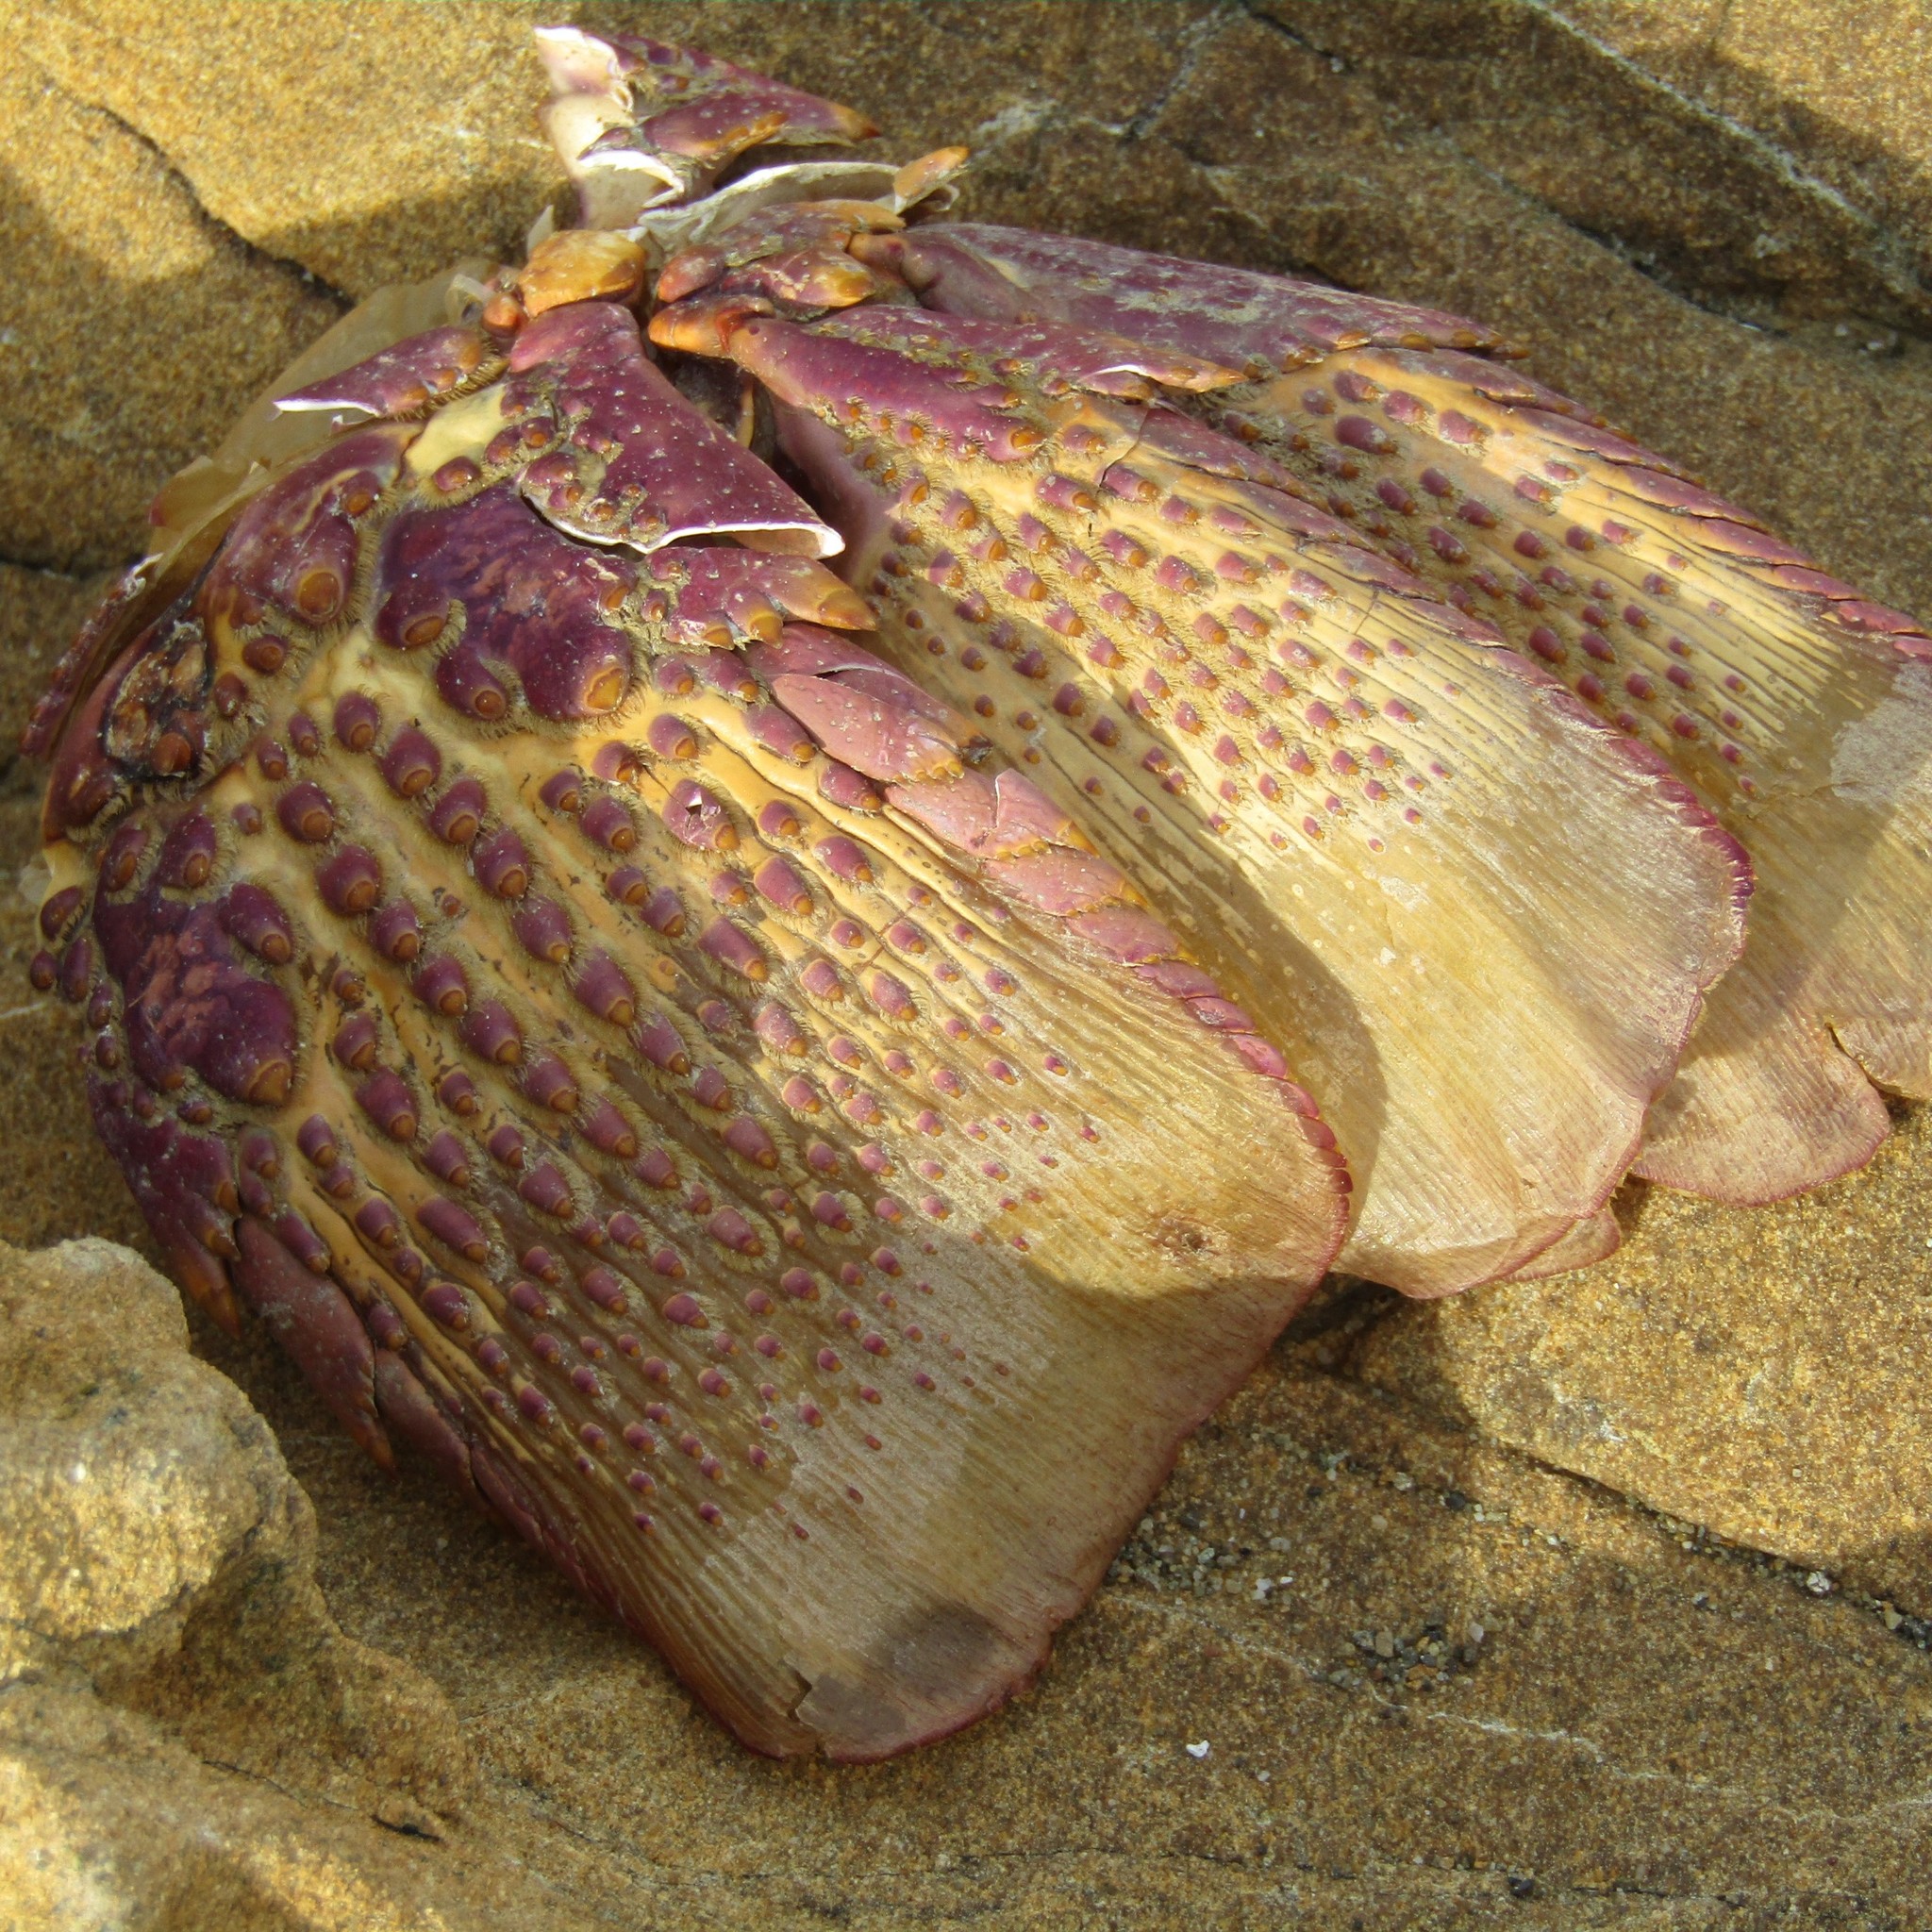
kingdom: Animalia
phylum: Arthropoda
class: Malacostraca
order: Decapoda
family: Palinuridae
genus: Jasus
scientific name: Jasus edwardsii
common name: Red rock lobster
